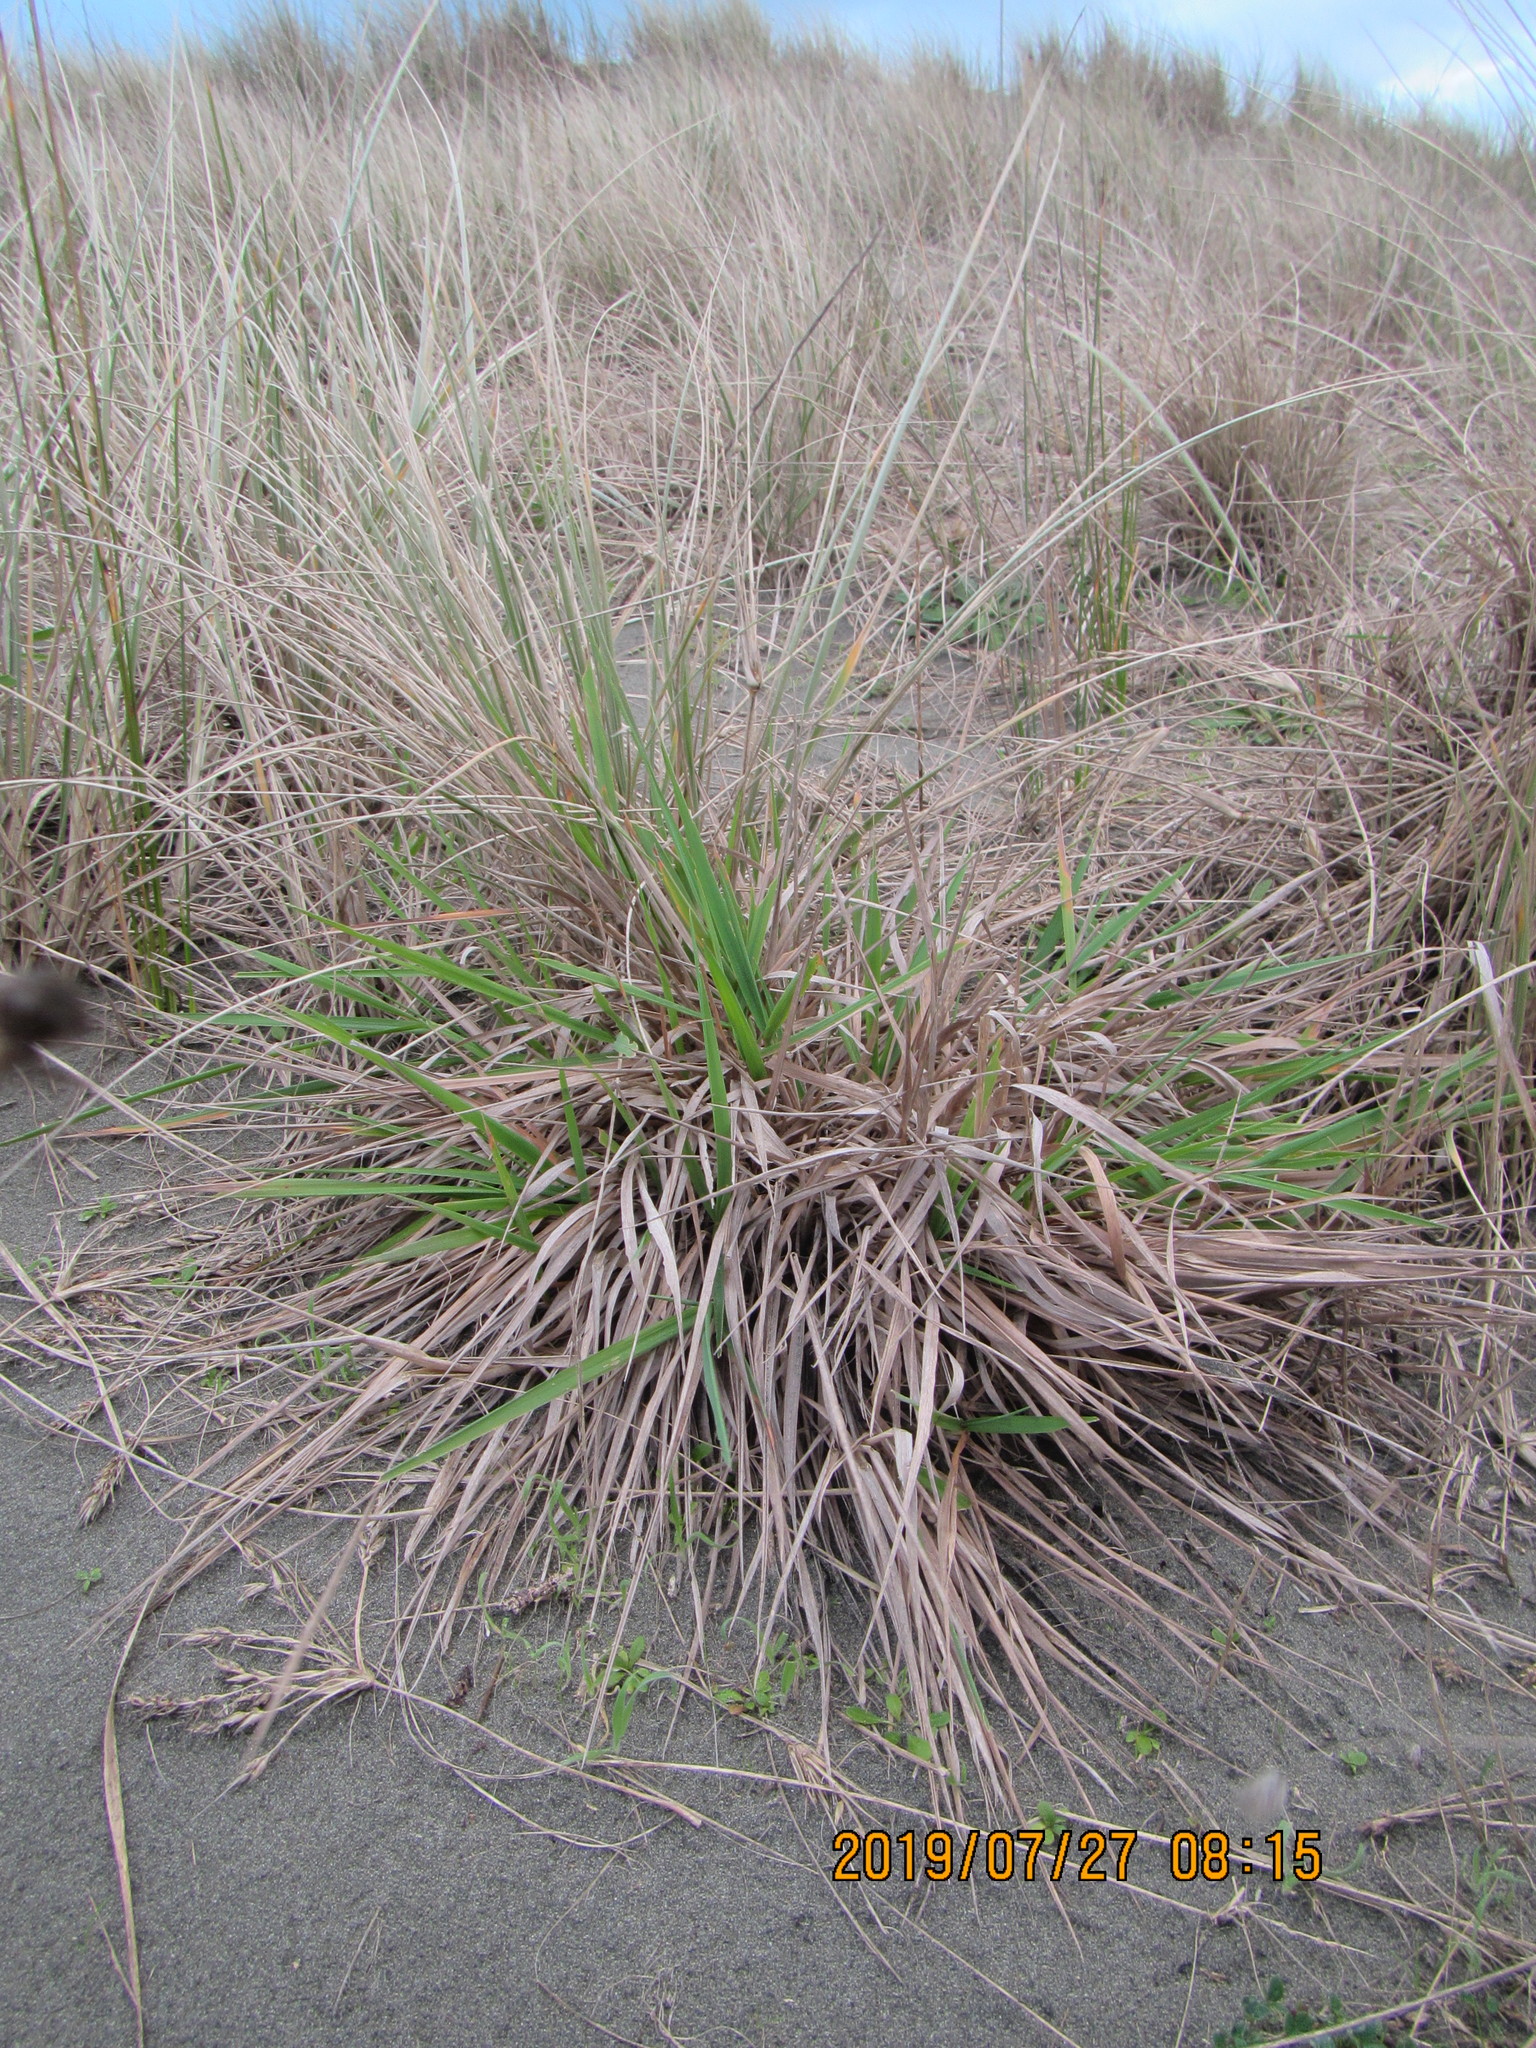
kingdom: Plantae
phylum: Tracheophyta
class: Liliopsida
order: Poales
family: Poaceae
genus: Lachnagrostis
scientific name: Lachnagrostis billardierei
